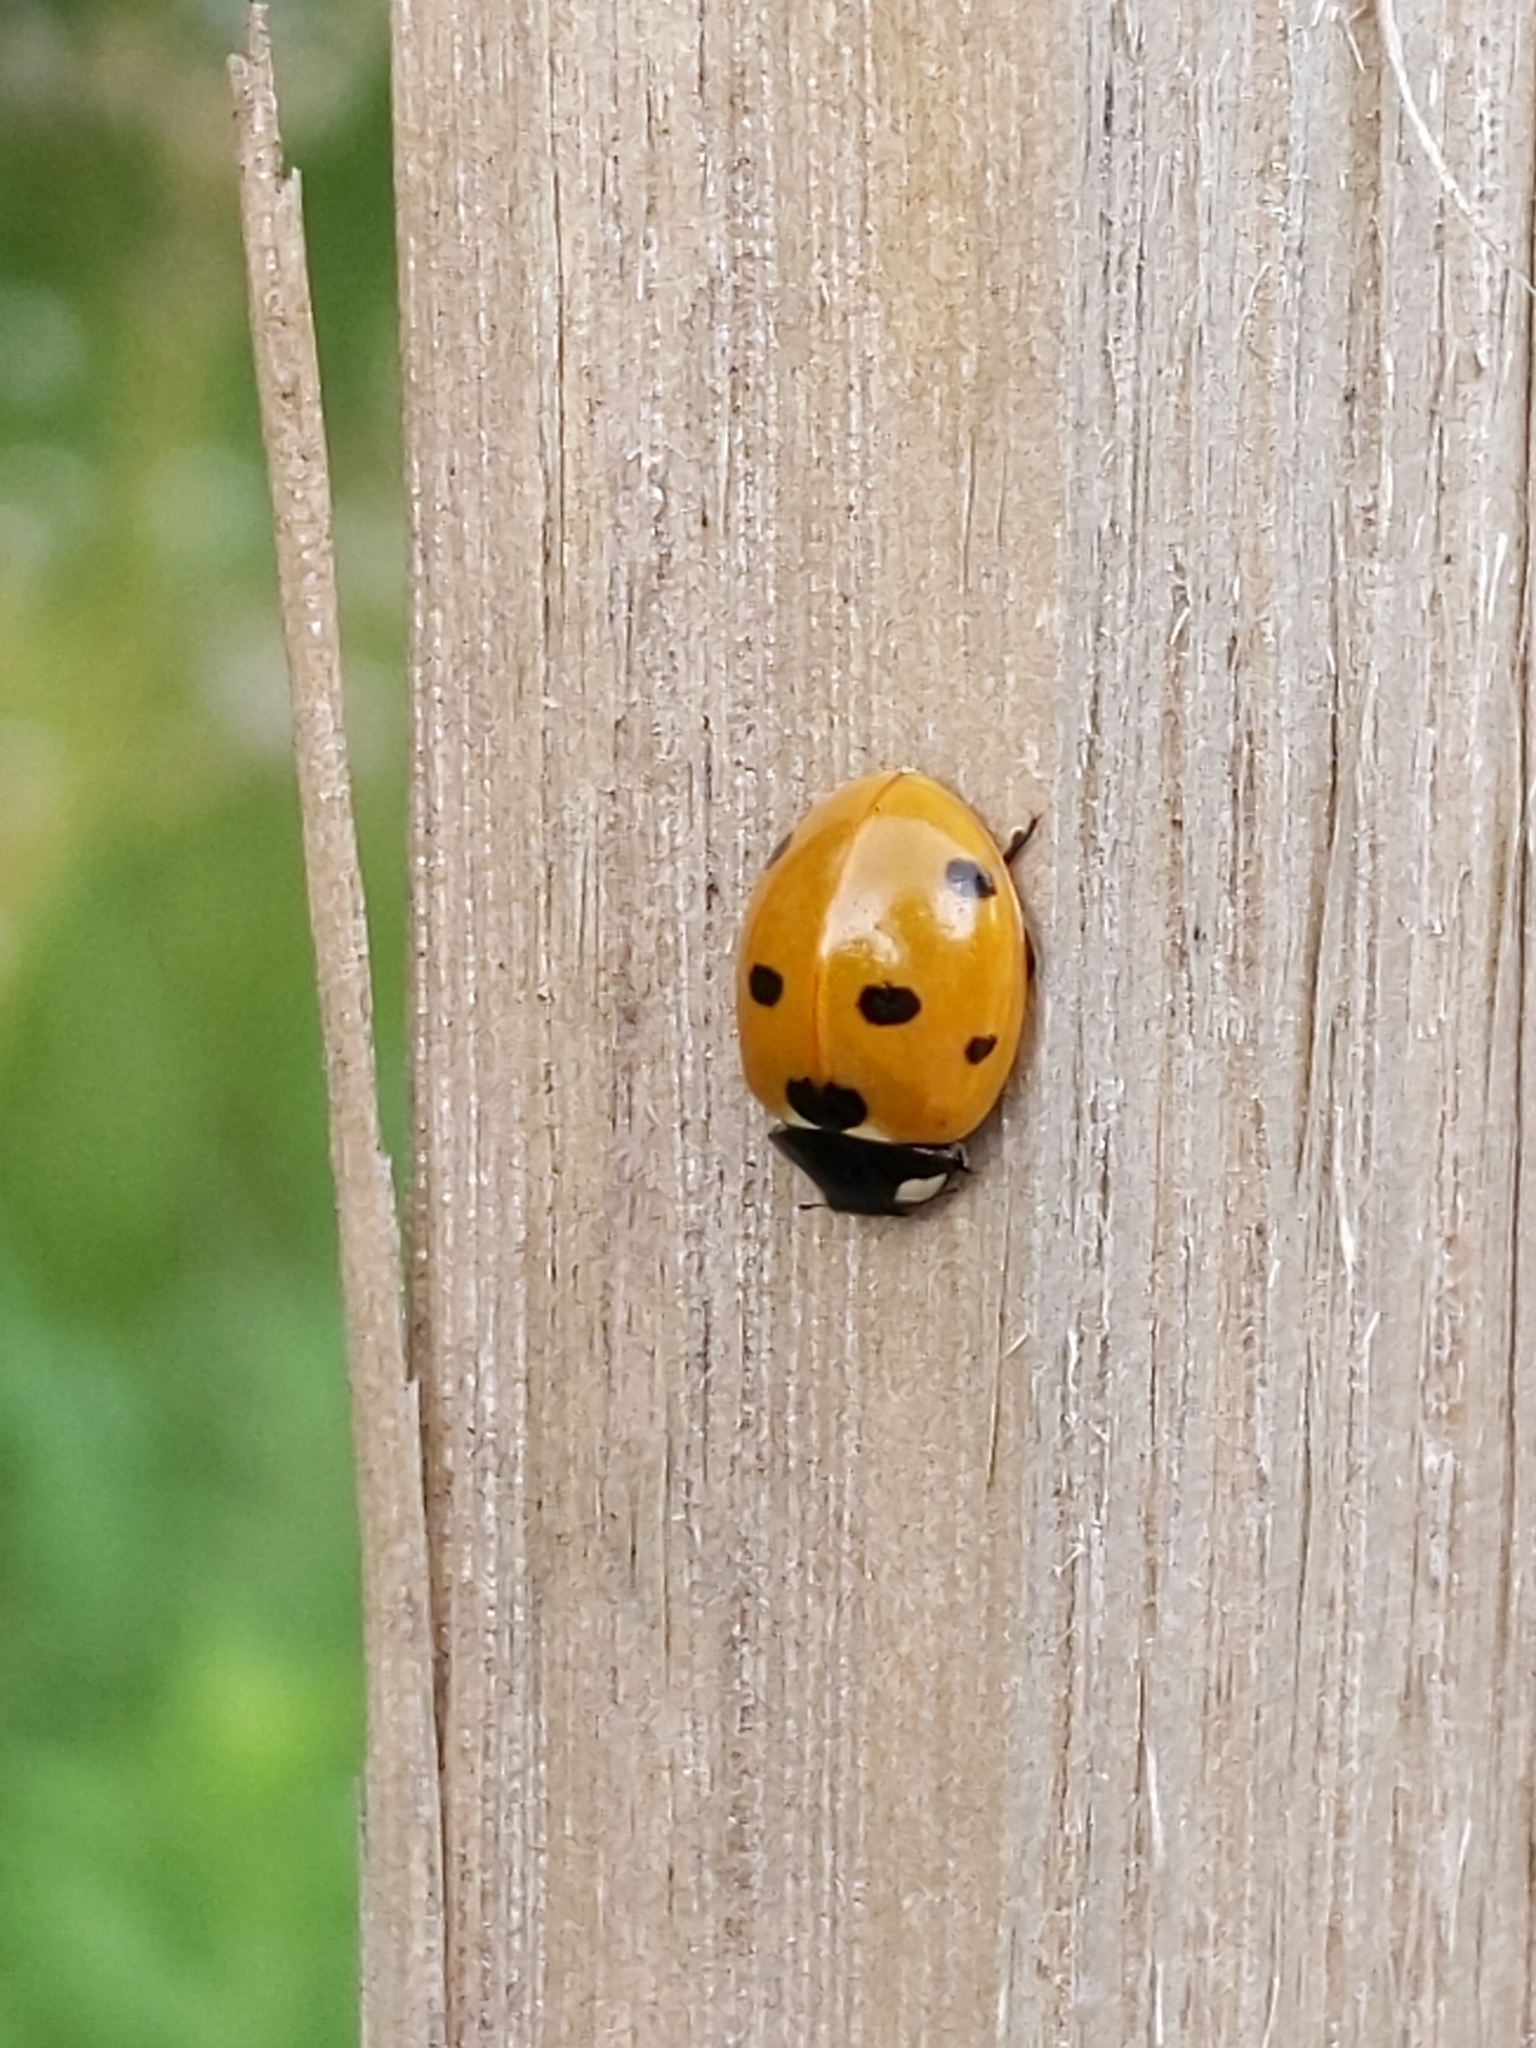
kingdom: Animalia
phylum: Arthropoda
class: Insecta
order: Coleoptera
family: Coccinellidae
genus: Coccinella
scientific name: Coccinella septempunctata
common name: Sevenspotted lady beetle
